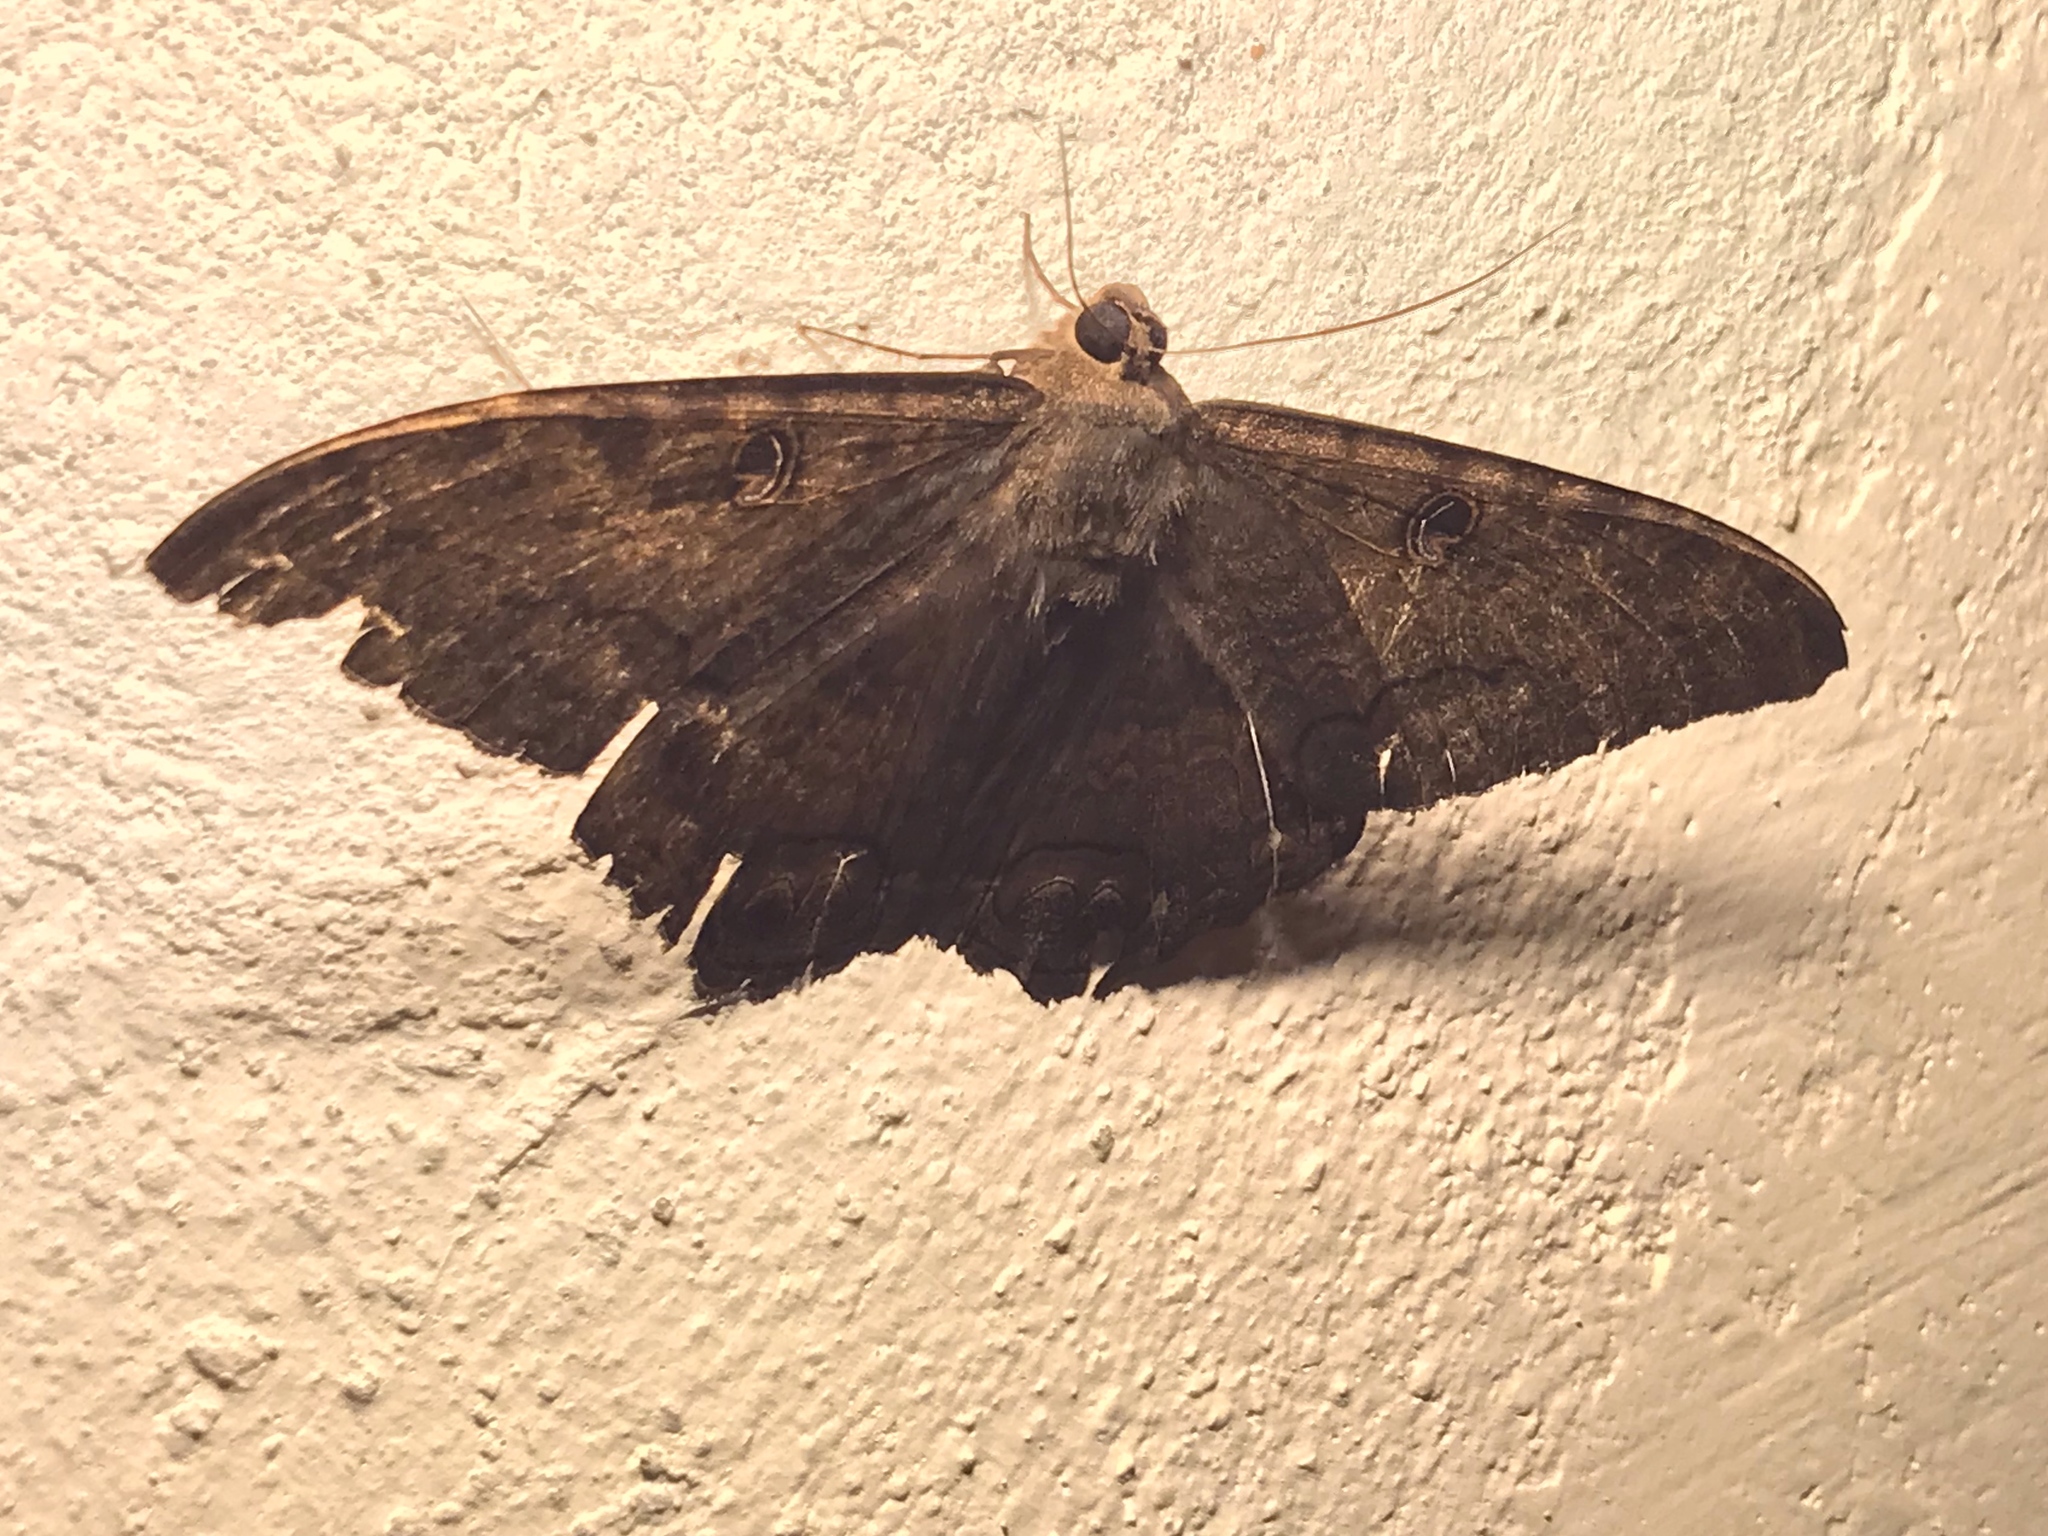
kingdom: Animalia
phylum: Arthropoda
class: Insecta
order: Lepidoptera
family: Erebidae
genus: Ascalapha
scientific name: Ascalapha odorata
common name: Black witch
